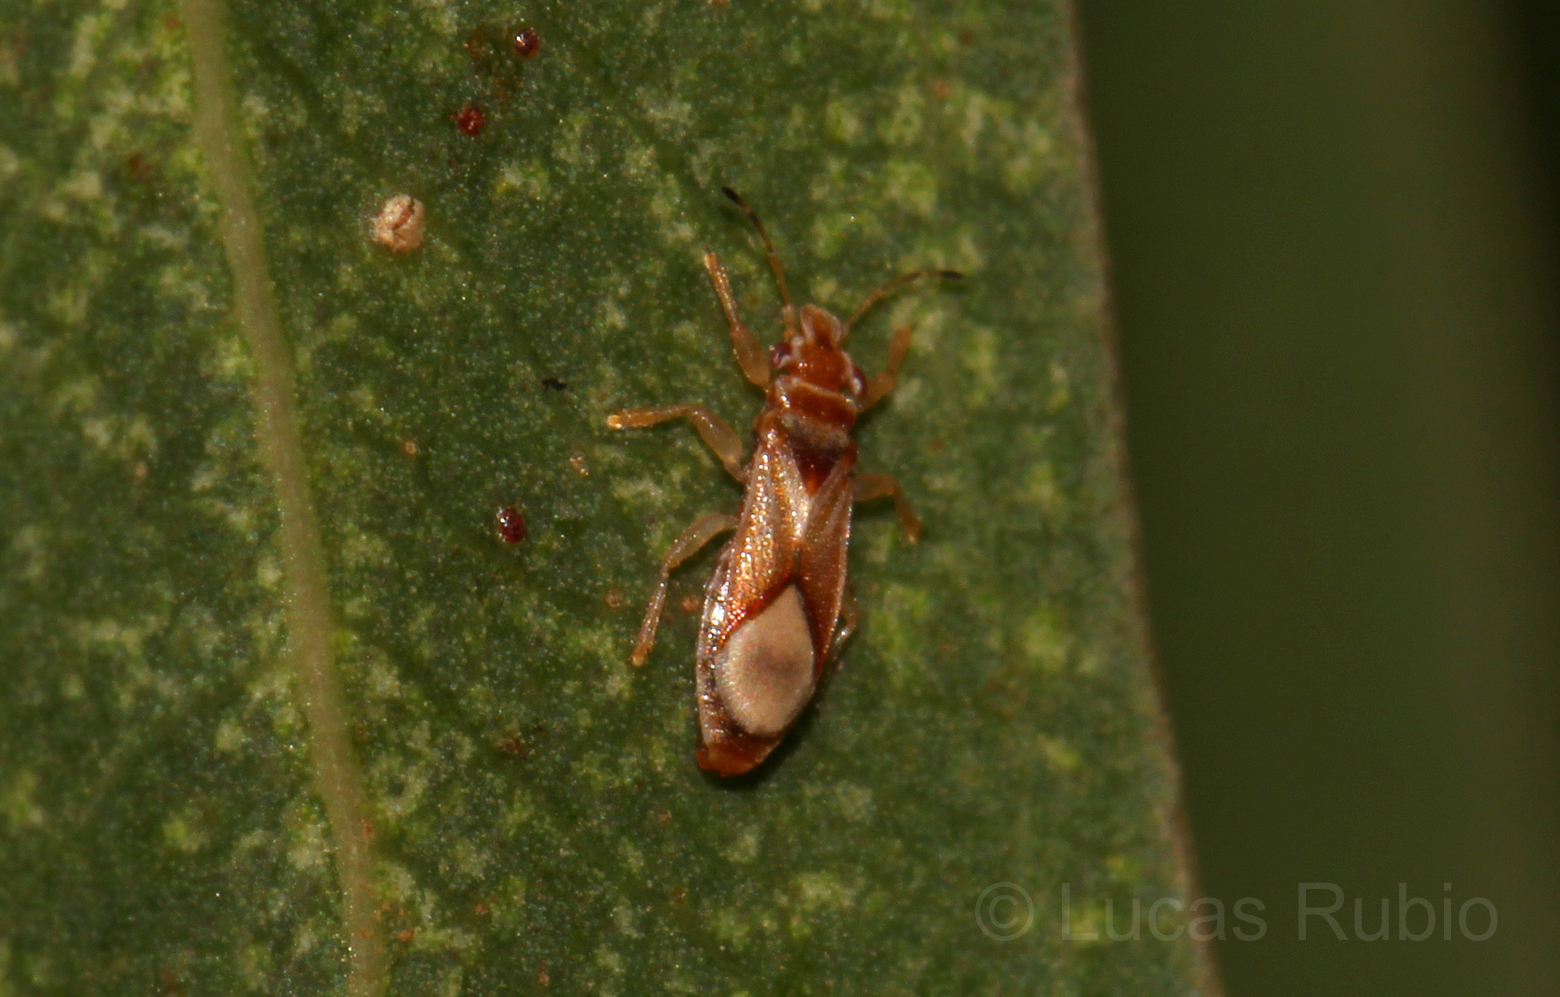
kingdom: Animalia
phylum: Arthropoda
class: Insecta
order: Hemiptera
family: Thaumastocoridae
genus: Thaumastocoris
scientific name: Thaumastocoris peregrinus
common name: Bronze bug
